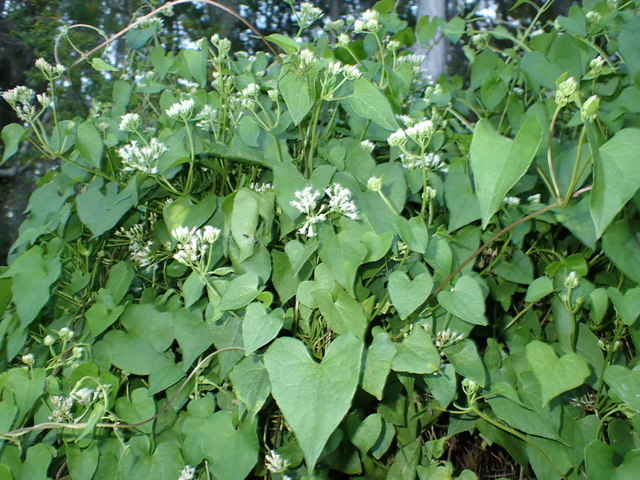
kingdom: Plantae
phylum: Tracheophyta
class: Magnoliopsida
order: Asterales
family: Asteraceae
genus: Mikania
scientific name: Mikania scandens
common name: Climbing hempvine
